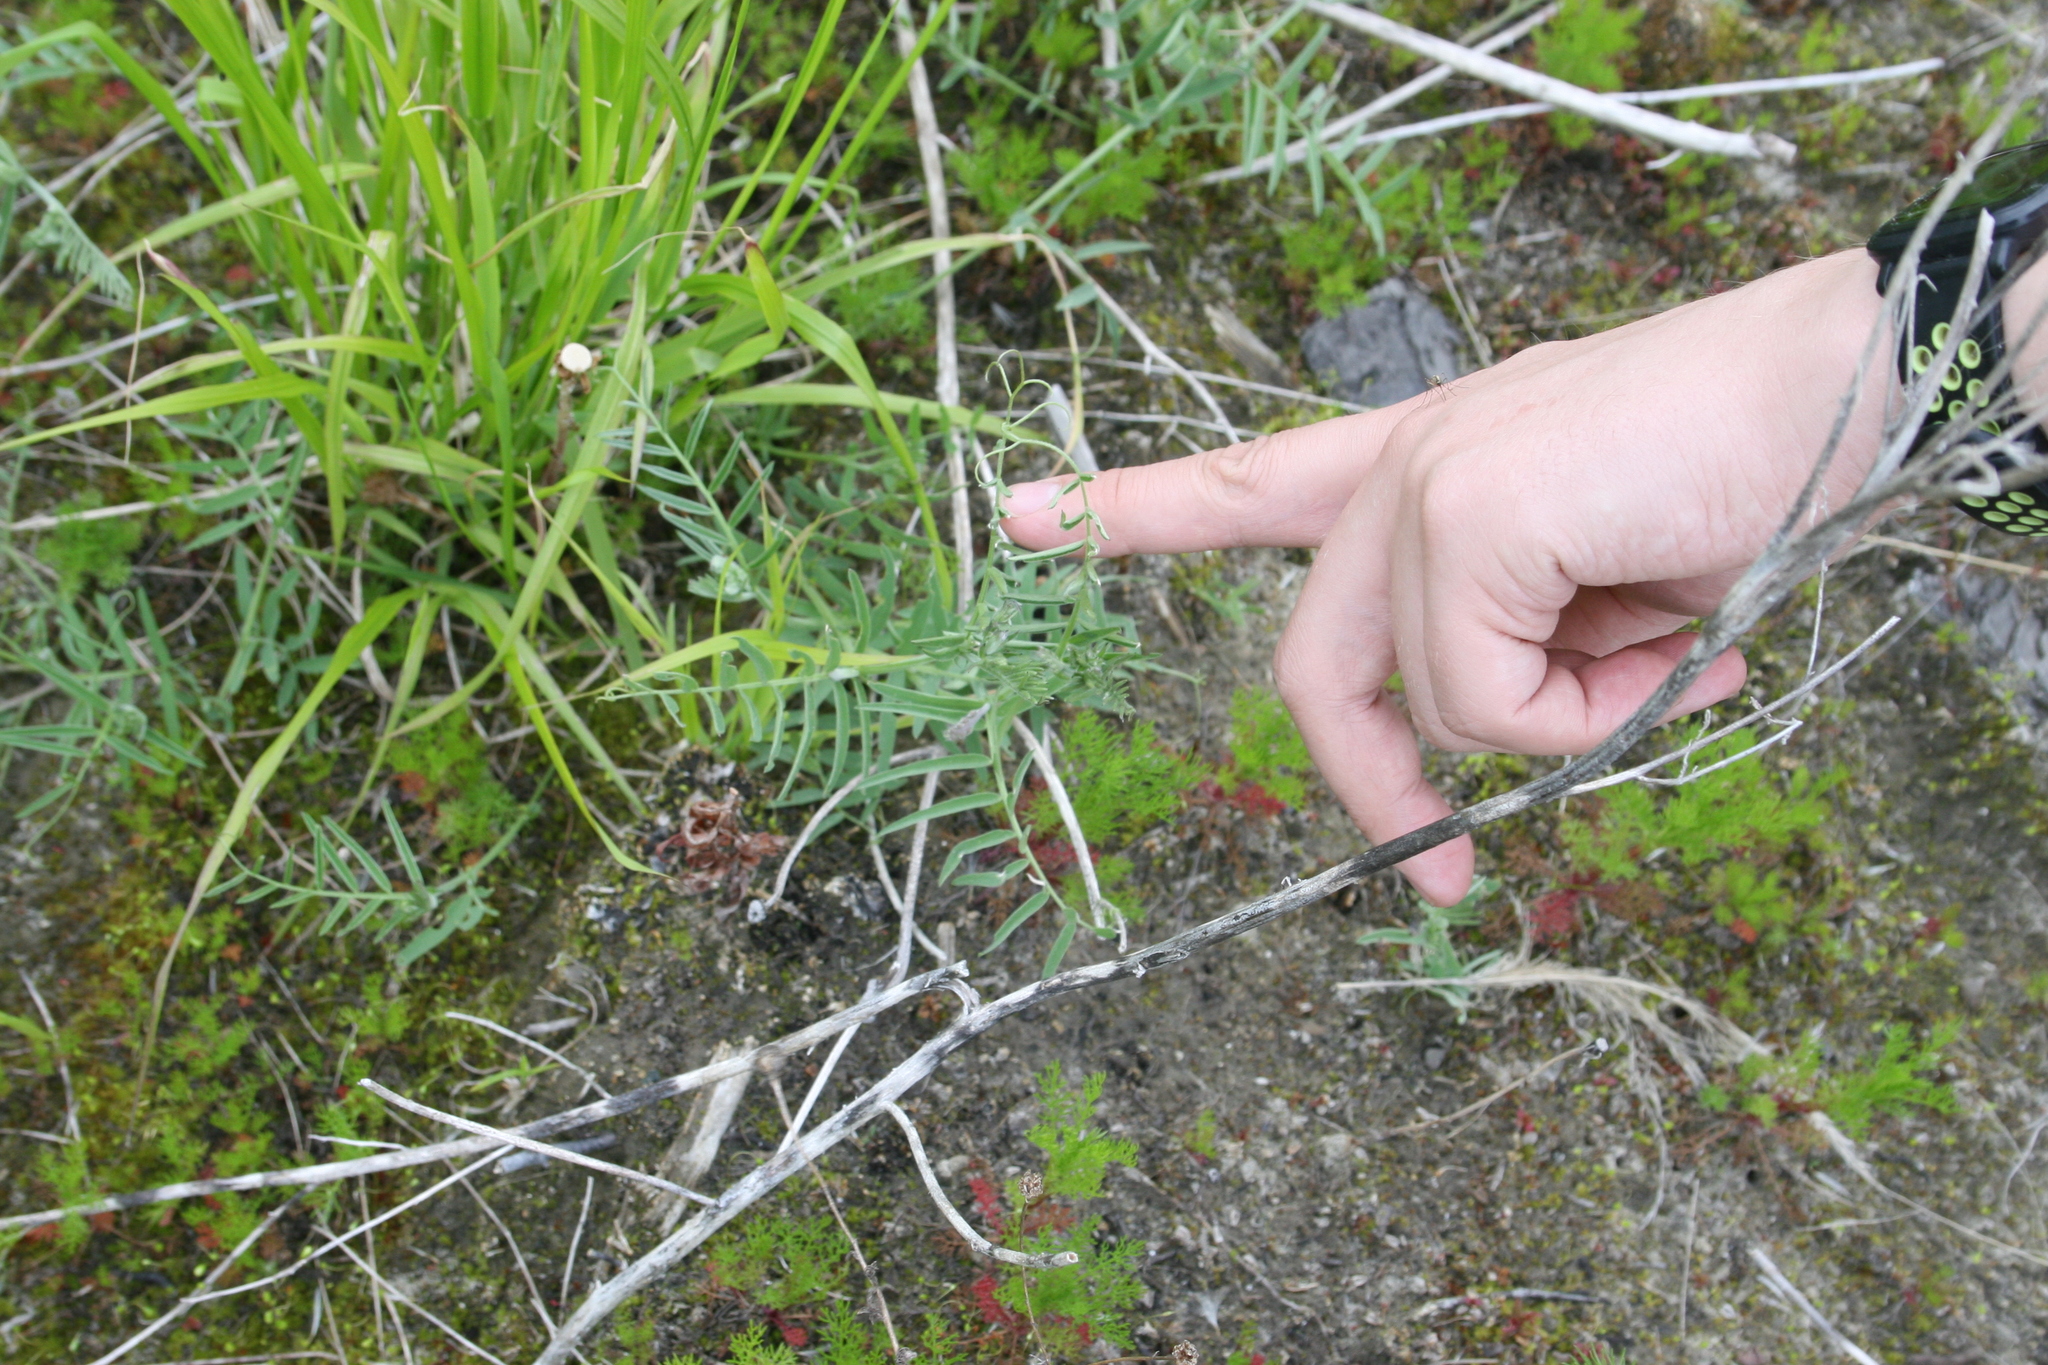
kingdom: Plantae
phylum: Tracheophyta
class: Magnoliopsida
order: Fabales
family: Fabaceae
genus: Vicia
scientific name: Vicia cracca
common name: Bird vetch
